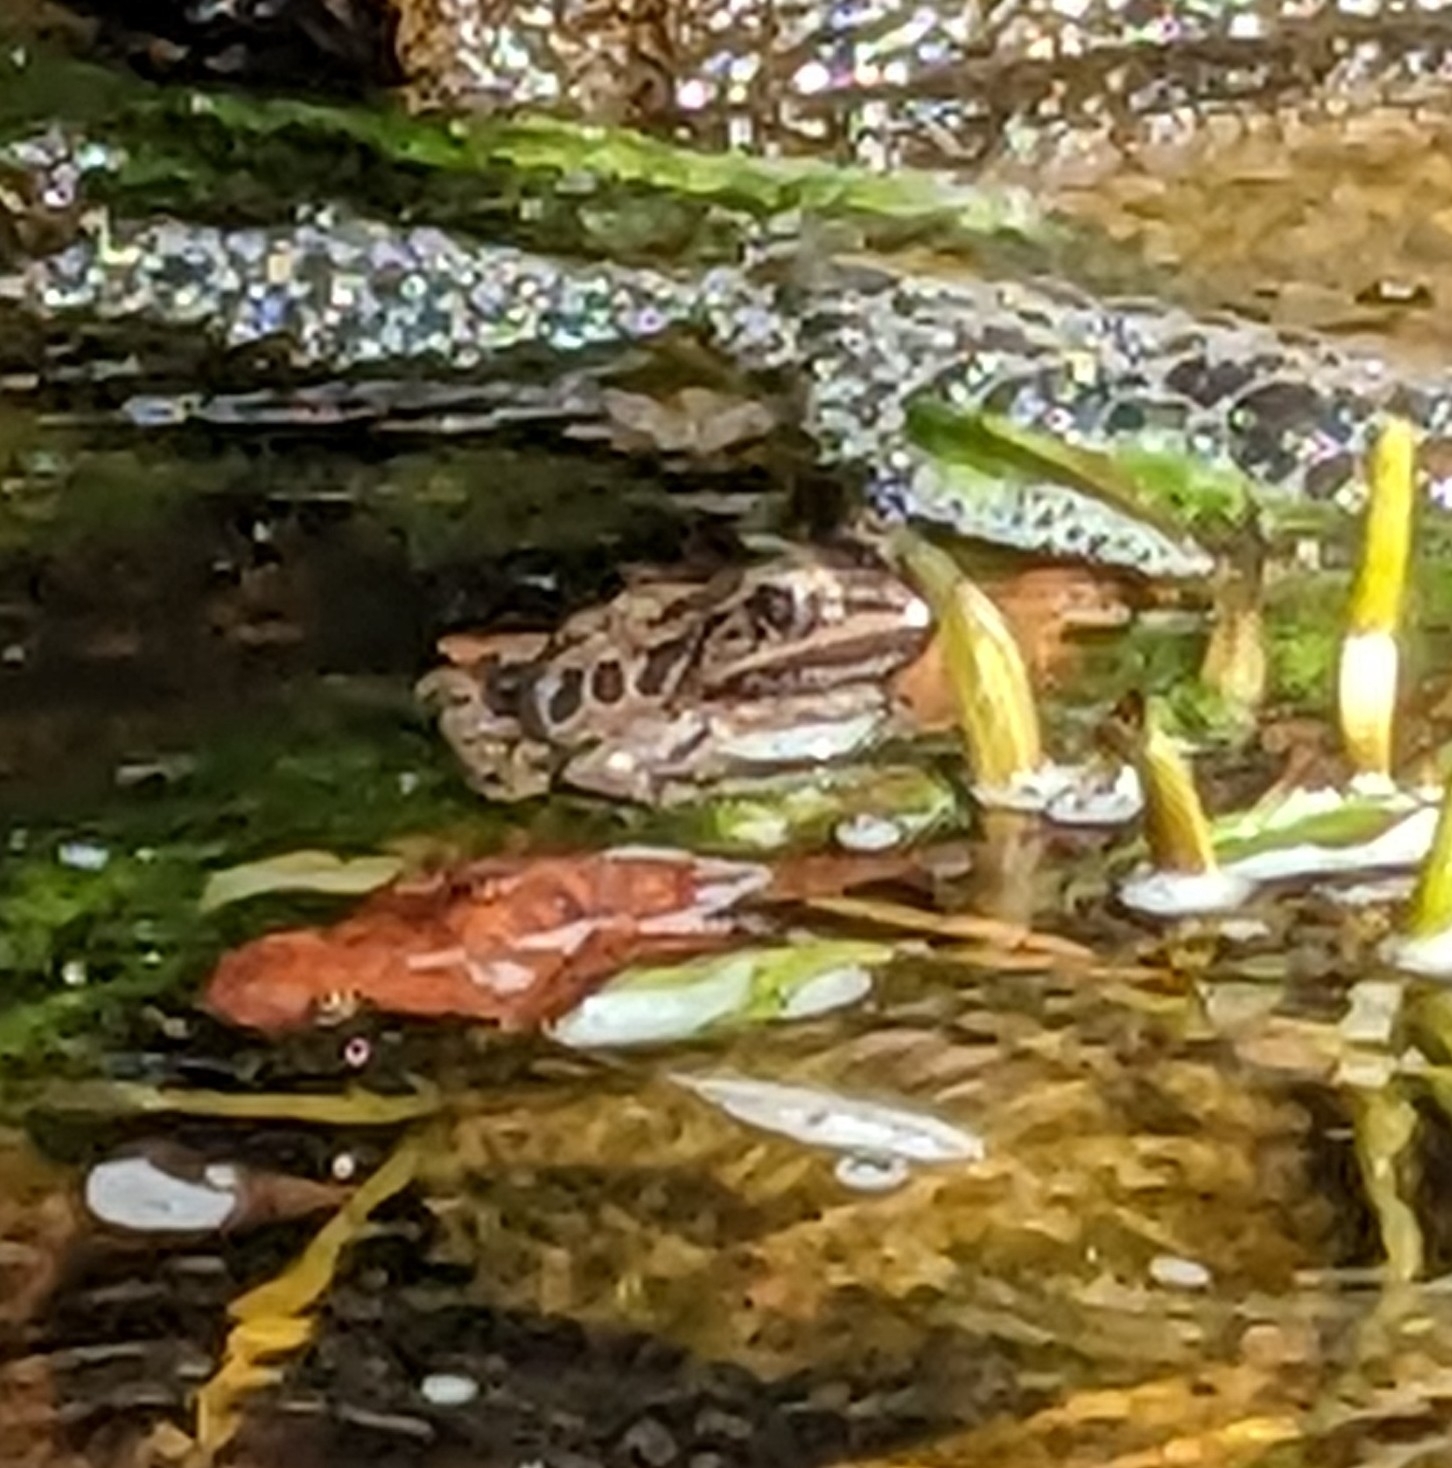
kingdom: Animalia
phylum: Chordata
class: Amphibia
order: Anura
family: Ranidae
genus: Lithobates
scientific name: Lithobates palustris
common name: Pickerel frog
